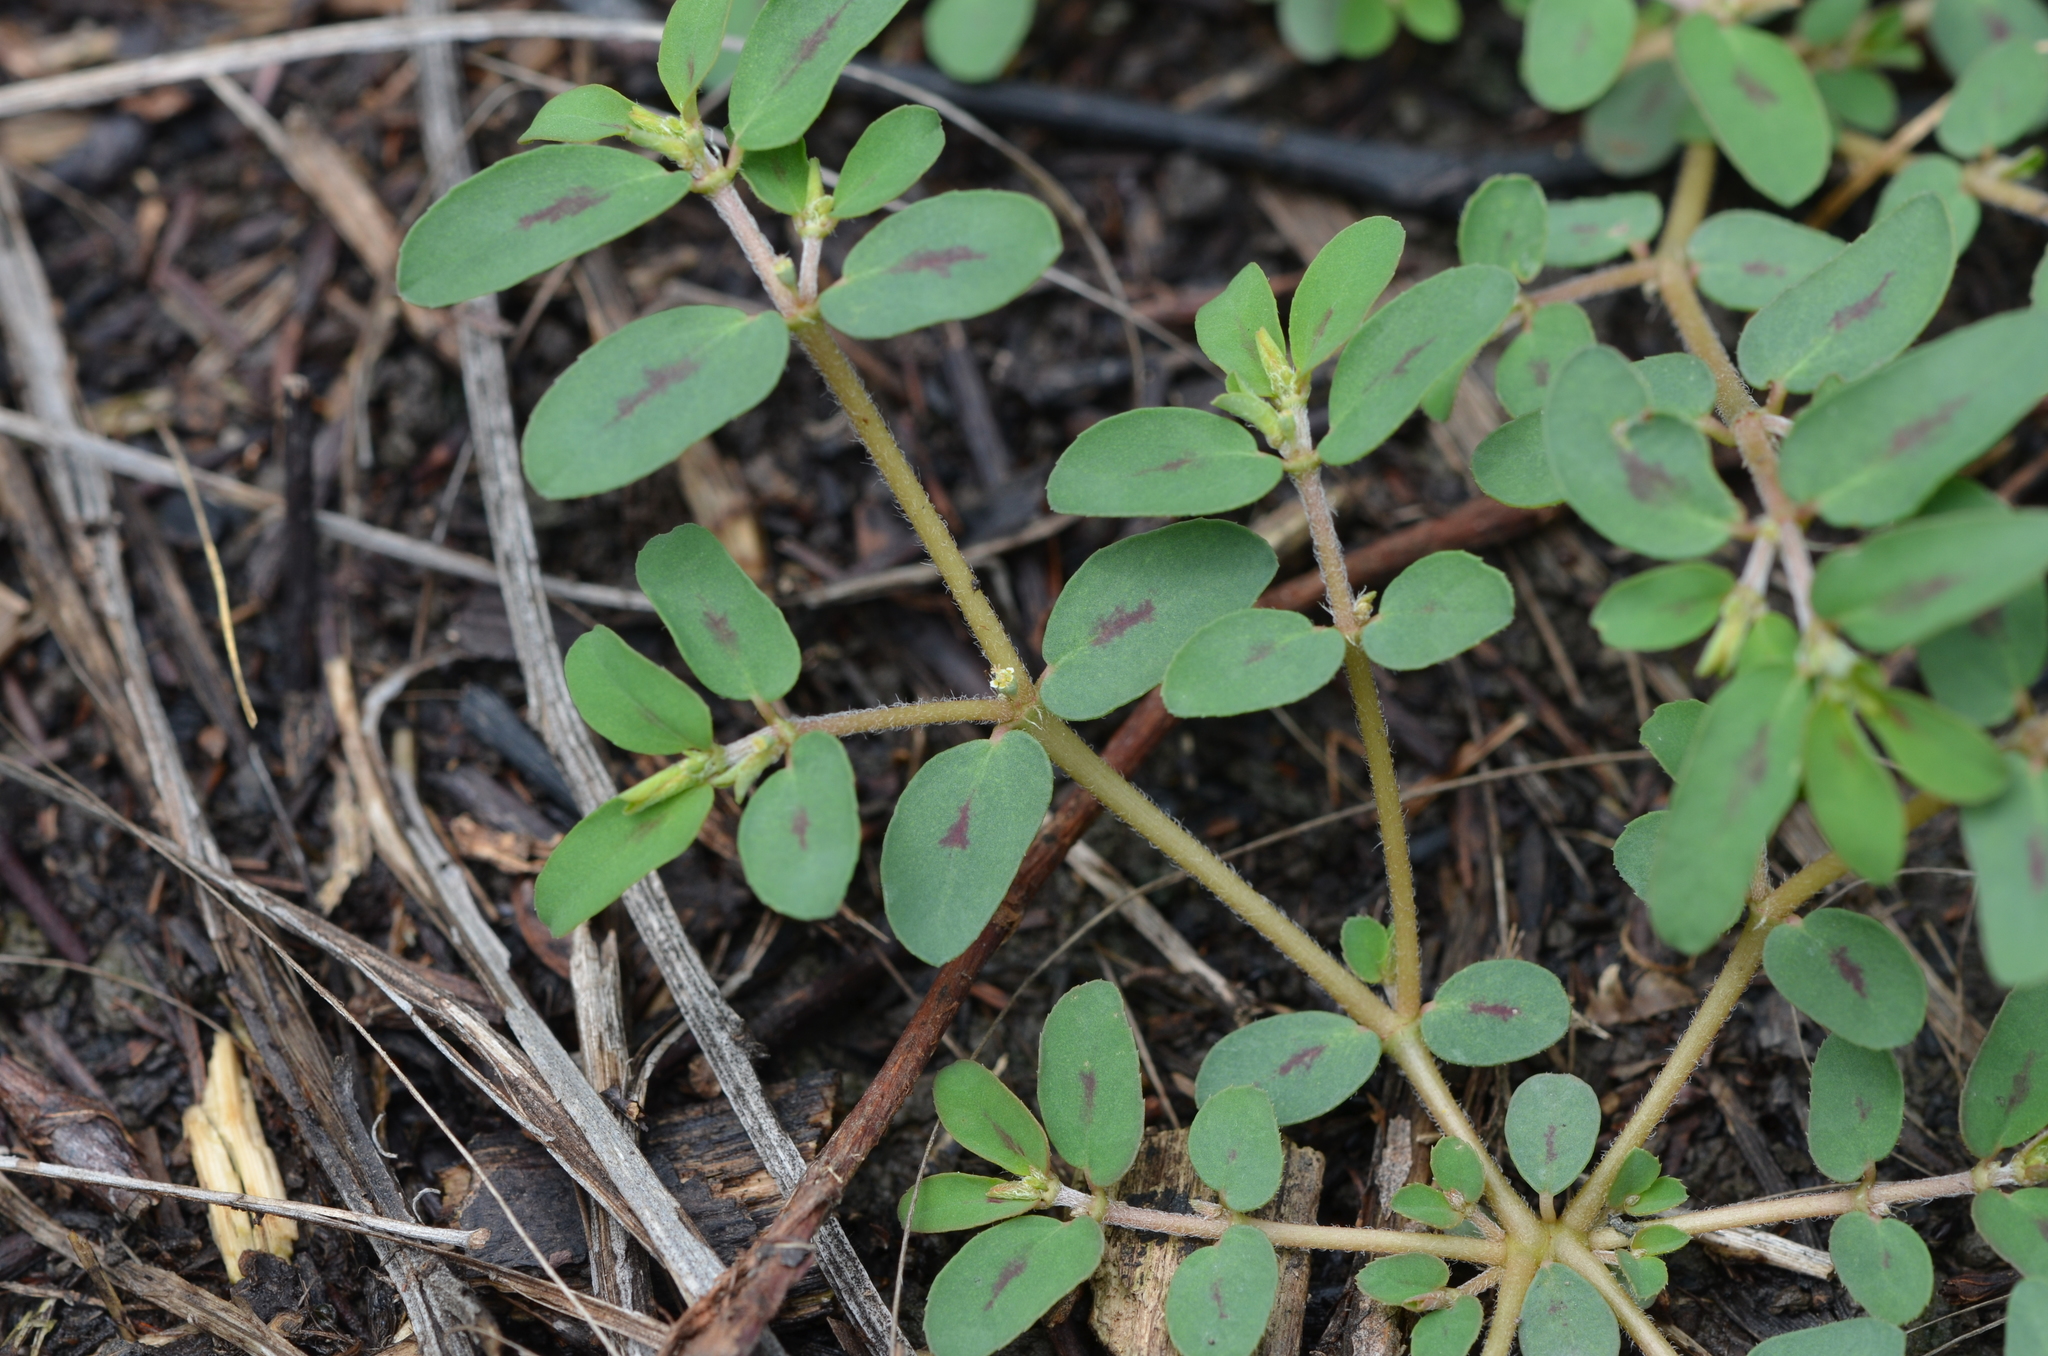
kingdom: Plantae
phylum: Tracheophyta
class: Magnoliopsida
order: Malpighiales
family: Euphorbiaceae
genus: Euphorbia
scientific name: Euphorbia maculata
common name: Spotted spurge
